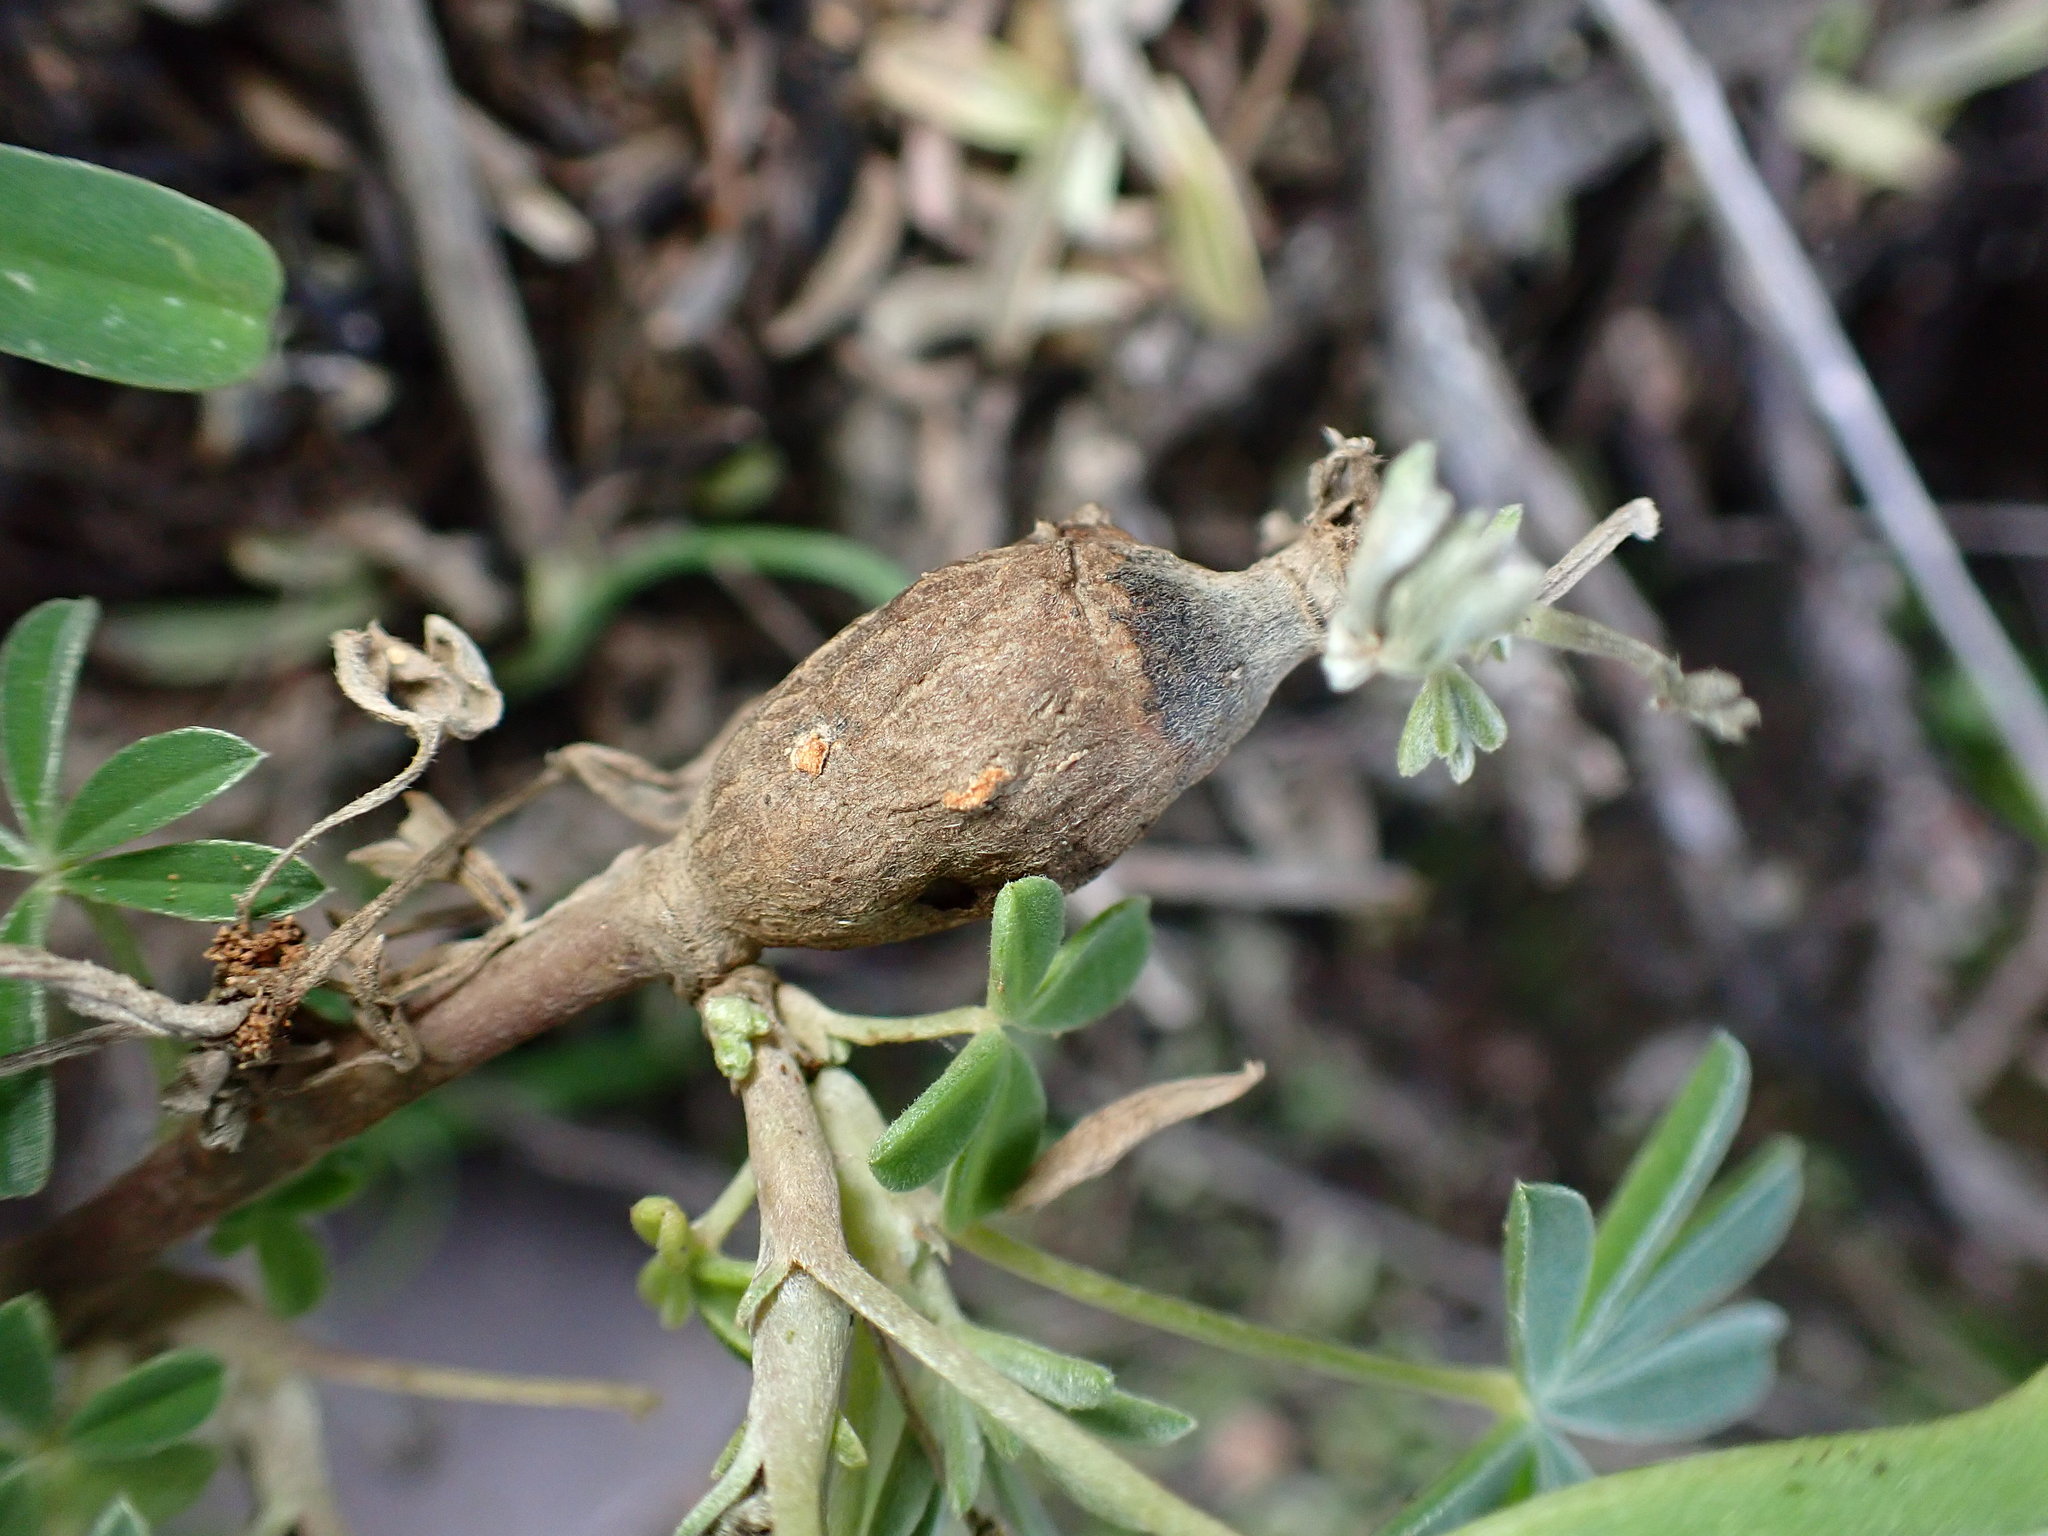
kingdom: Animalia
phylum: Arthropoda
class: Insecta
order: Diptera
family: Cecidomyiidae
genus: Neolasioptera
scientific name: Neolasioptera lupini
